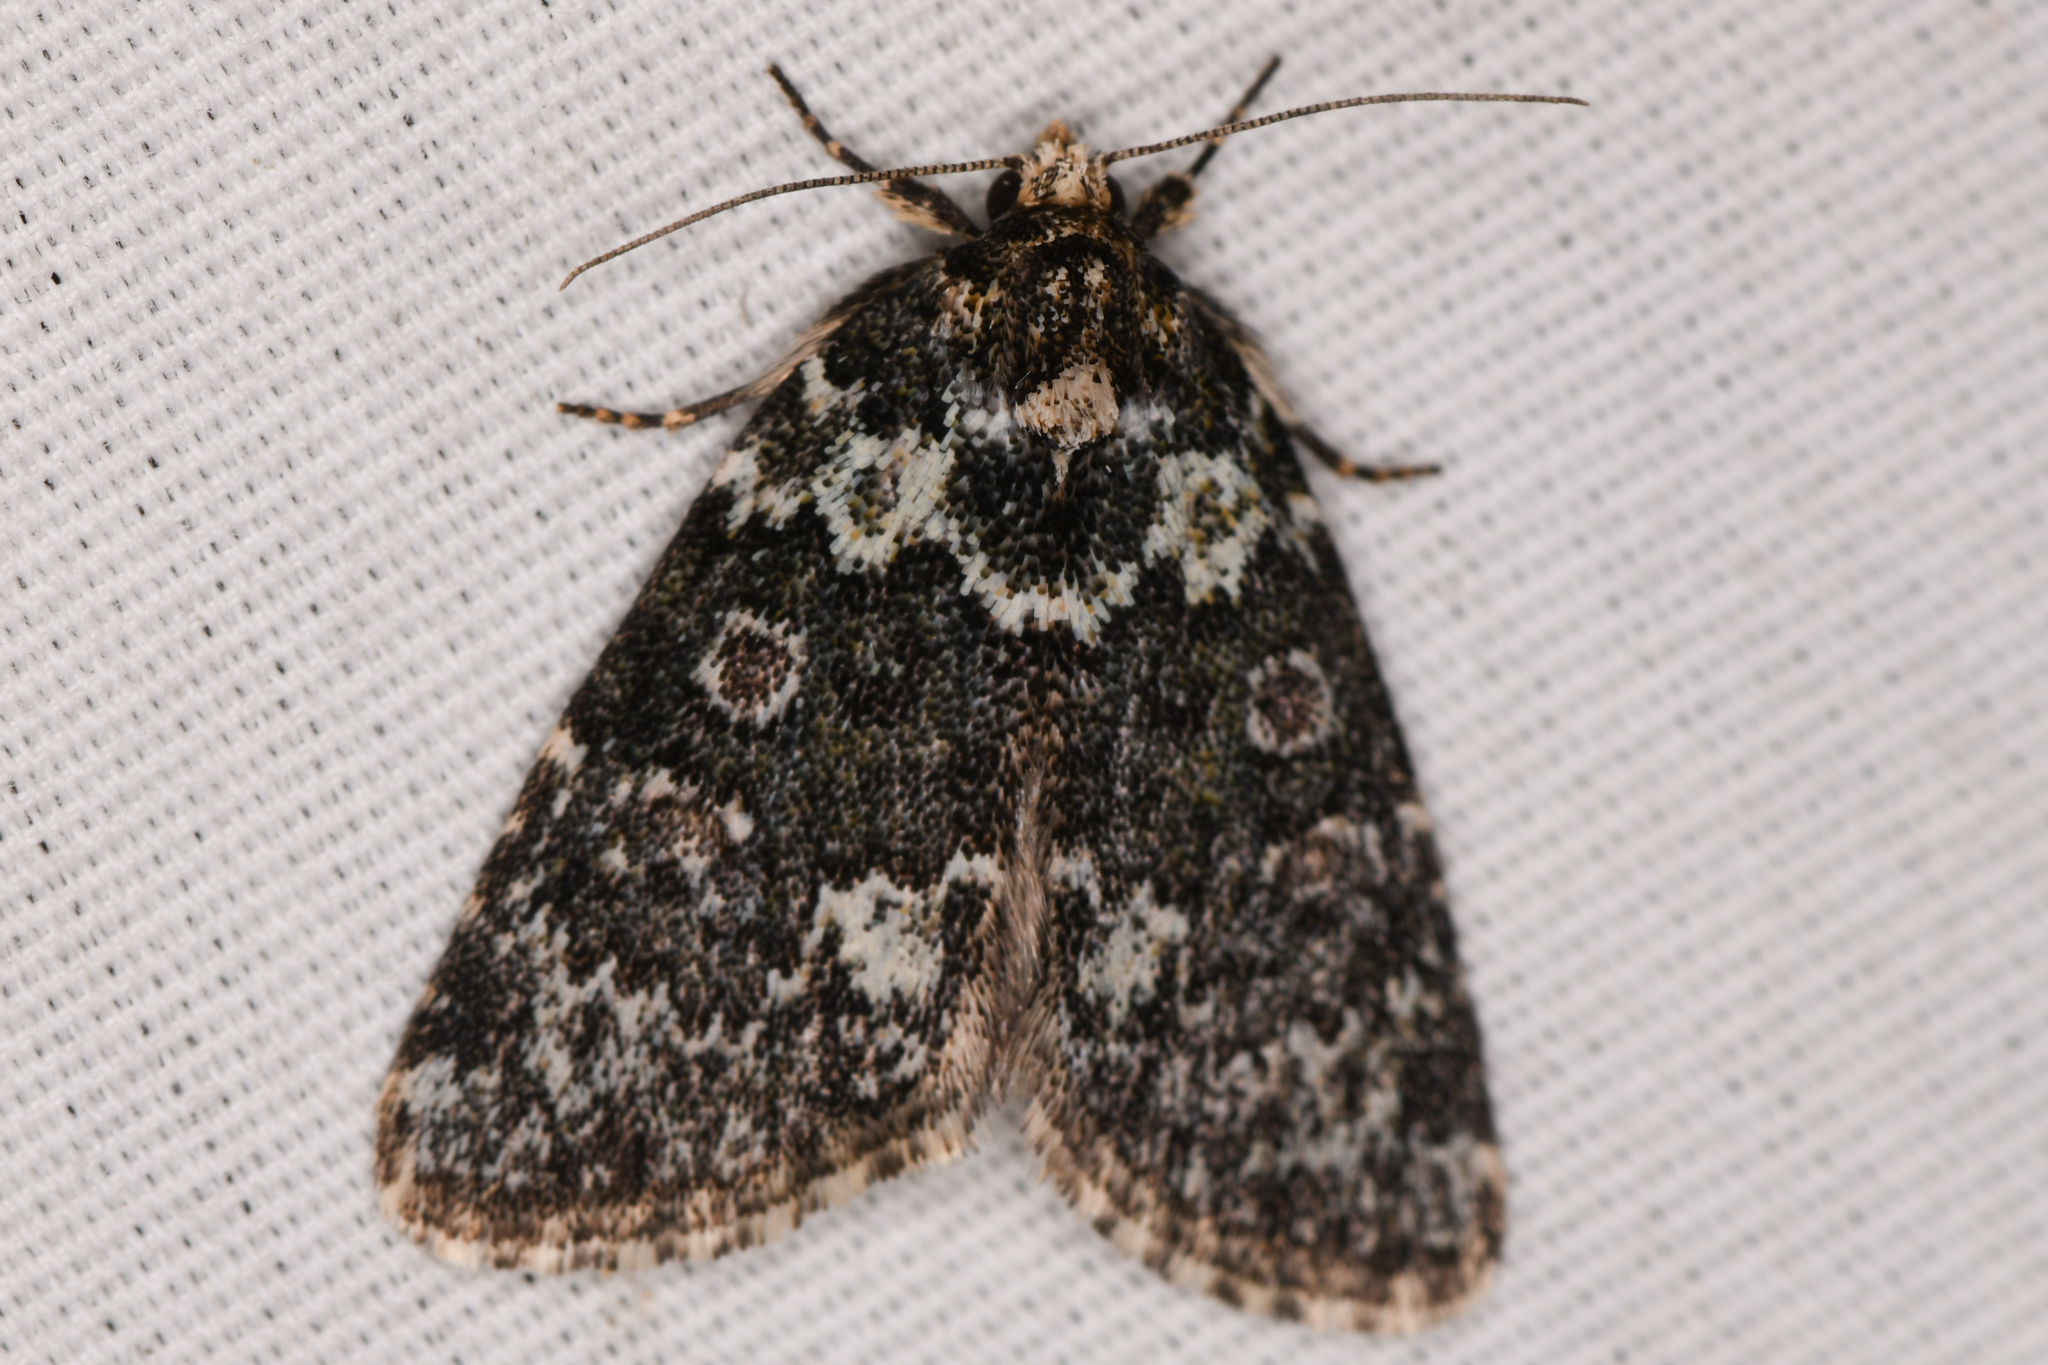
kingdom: Animalia
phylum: Arthropoda
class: Insecta
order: Lepidoptera
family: Noctuidae
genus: Schinia
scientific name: Schinia olivacea
